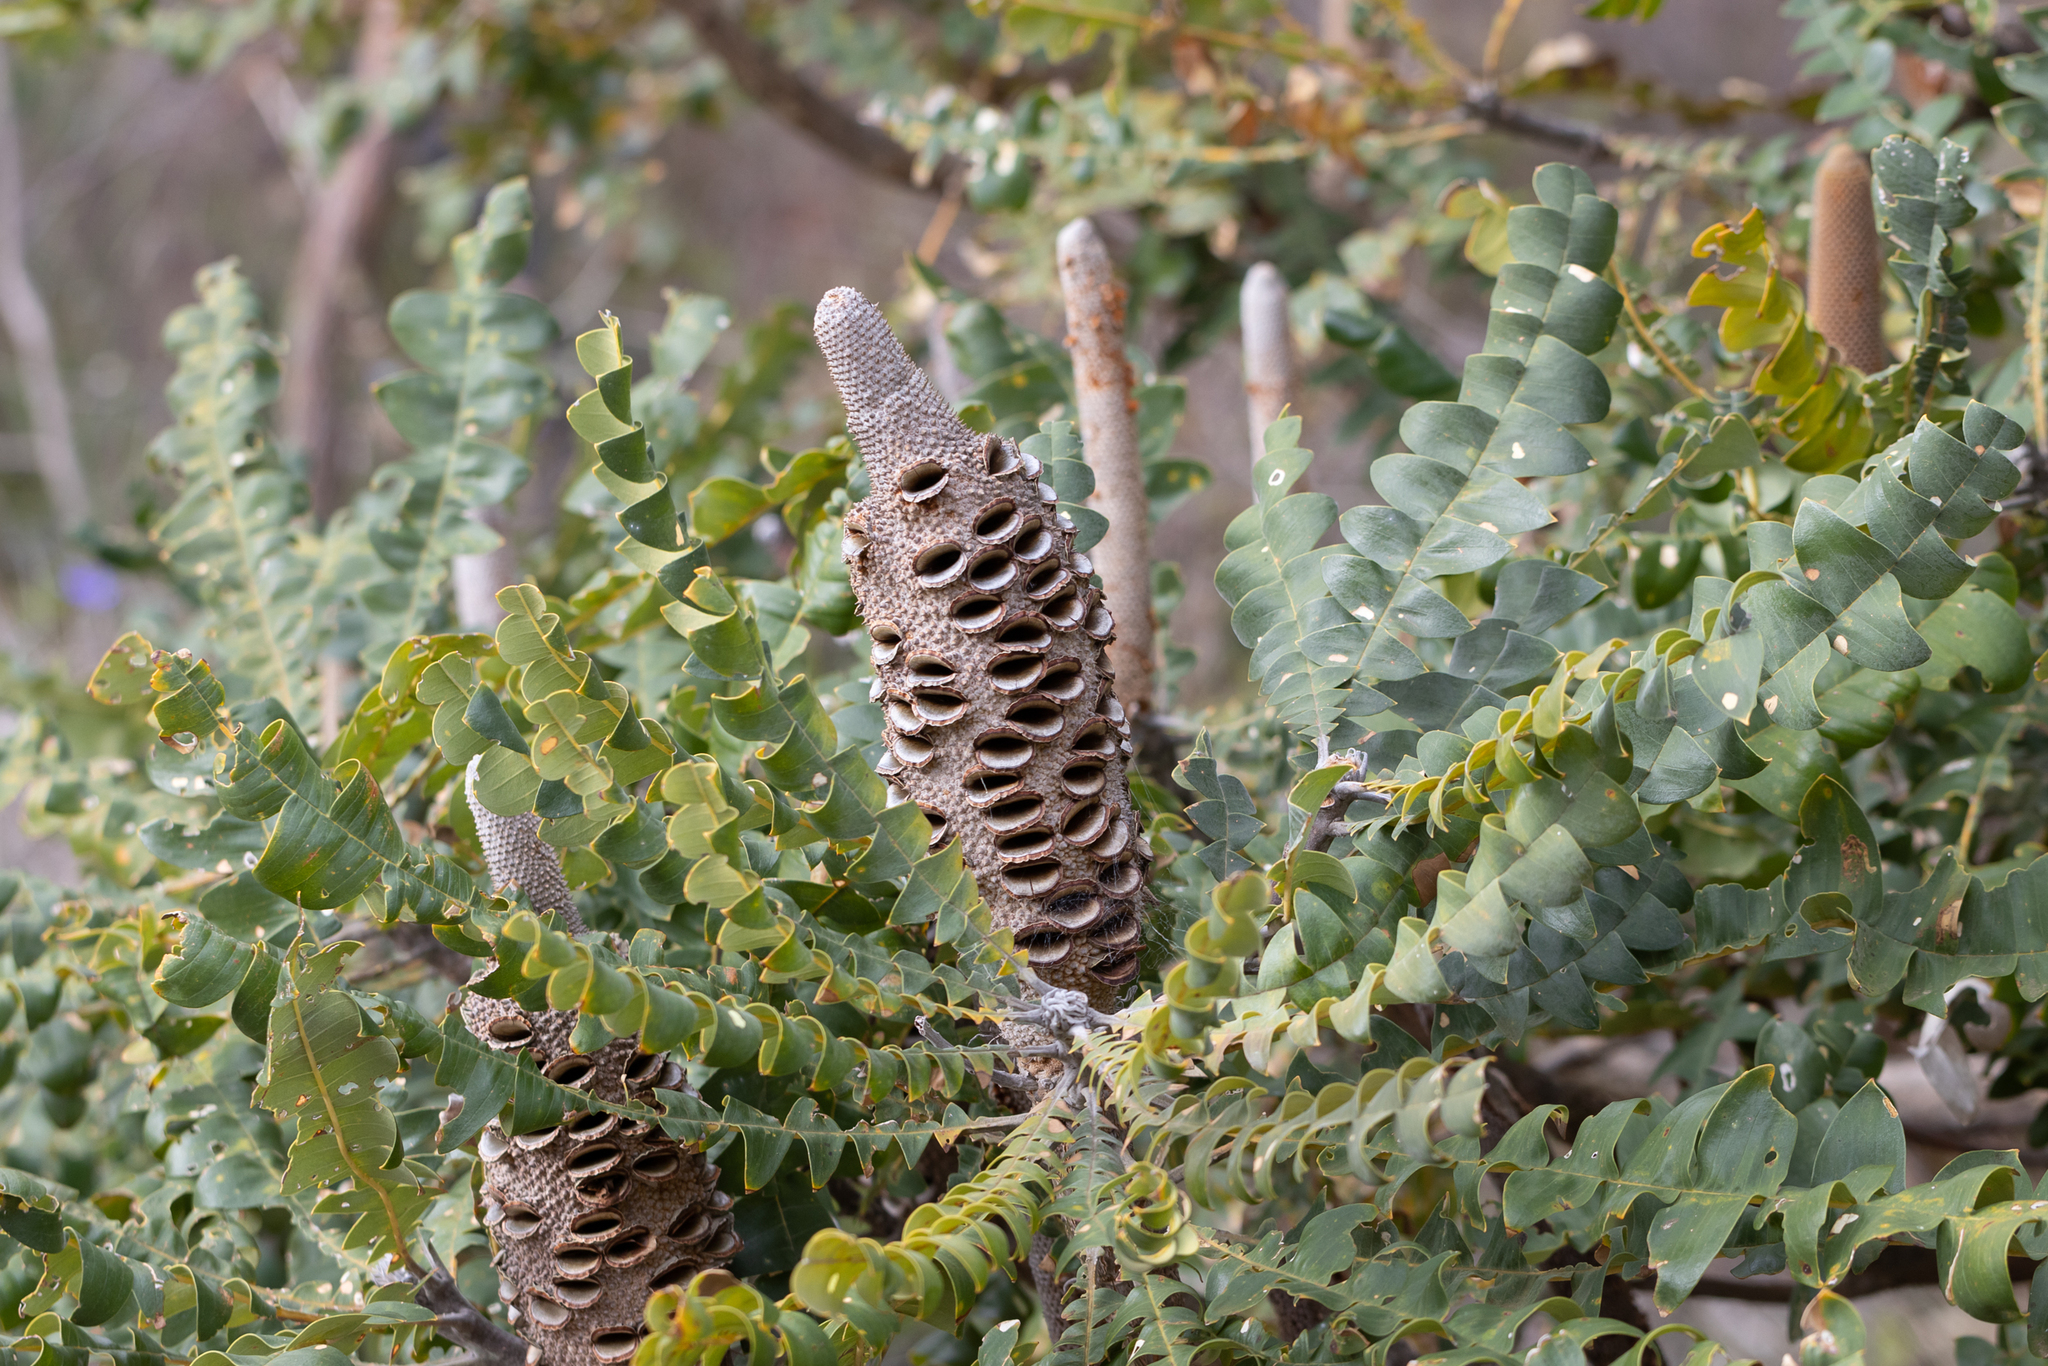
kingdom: Plantae
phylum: Tracheophyta
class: Magnoliopsida
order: Proteales
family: Proteaceae
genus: Banksia
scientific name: Banksia grandis
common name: Giant banksia
